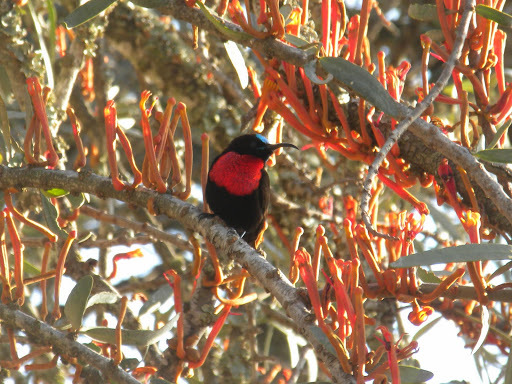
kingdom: Animalia
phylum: Chordata
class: Aves
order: Passeriformes
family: Nectariniidae
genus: Chalcomitra
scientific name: Chalcomitra senegalensis
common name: Scarlet-chested sunbird
